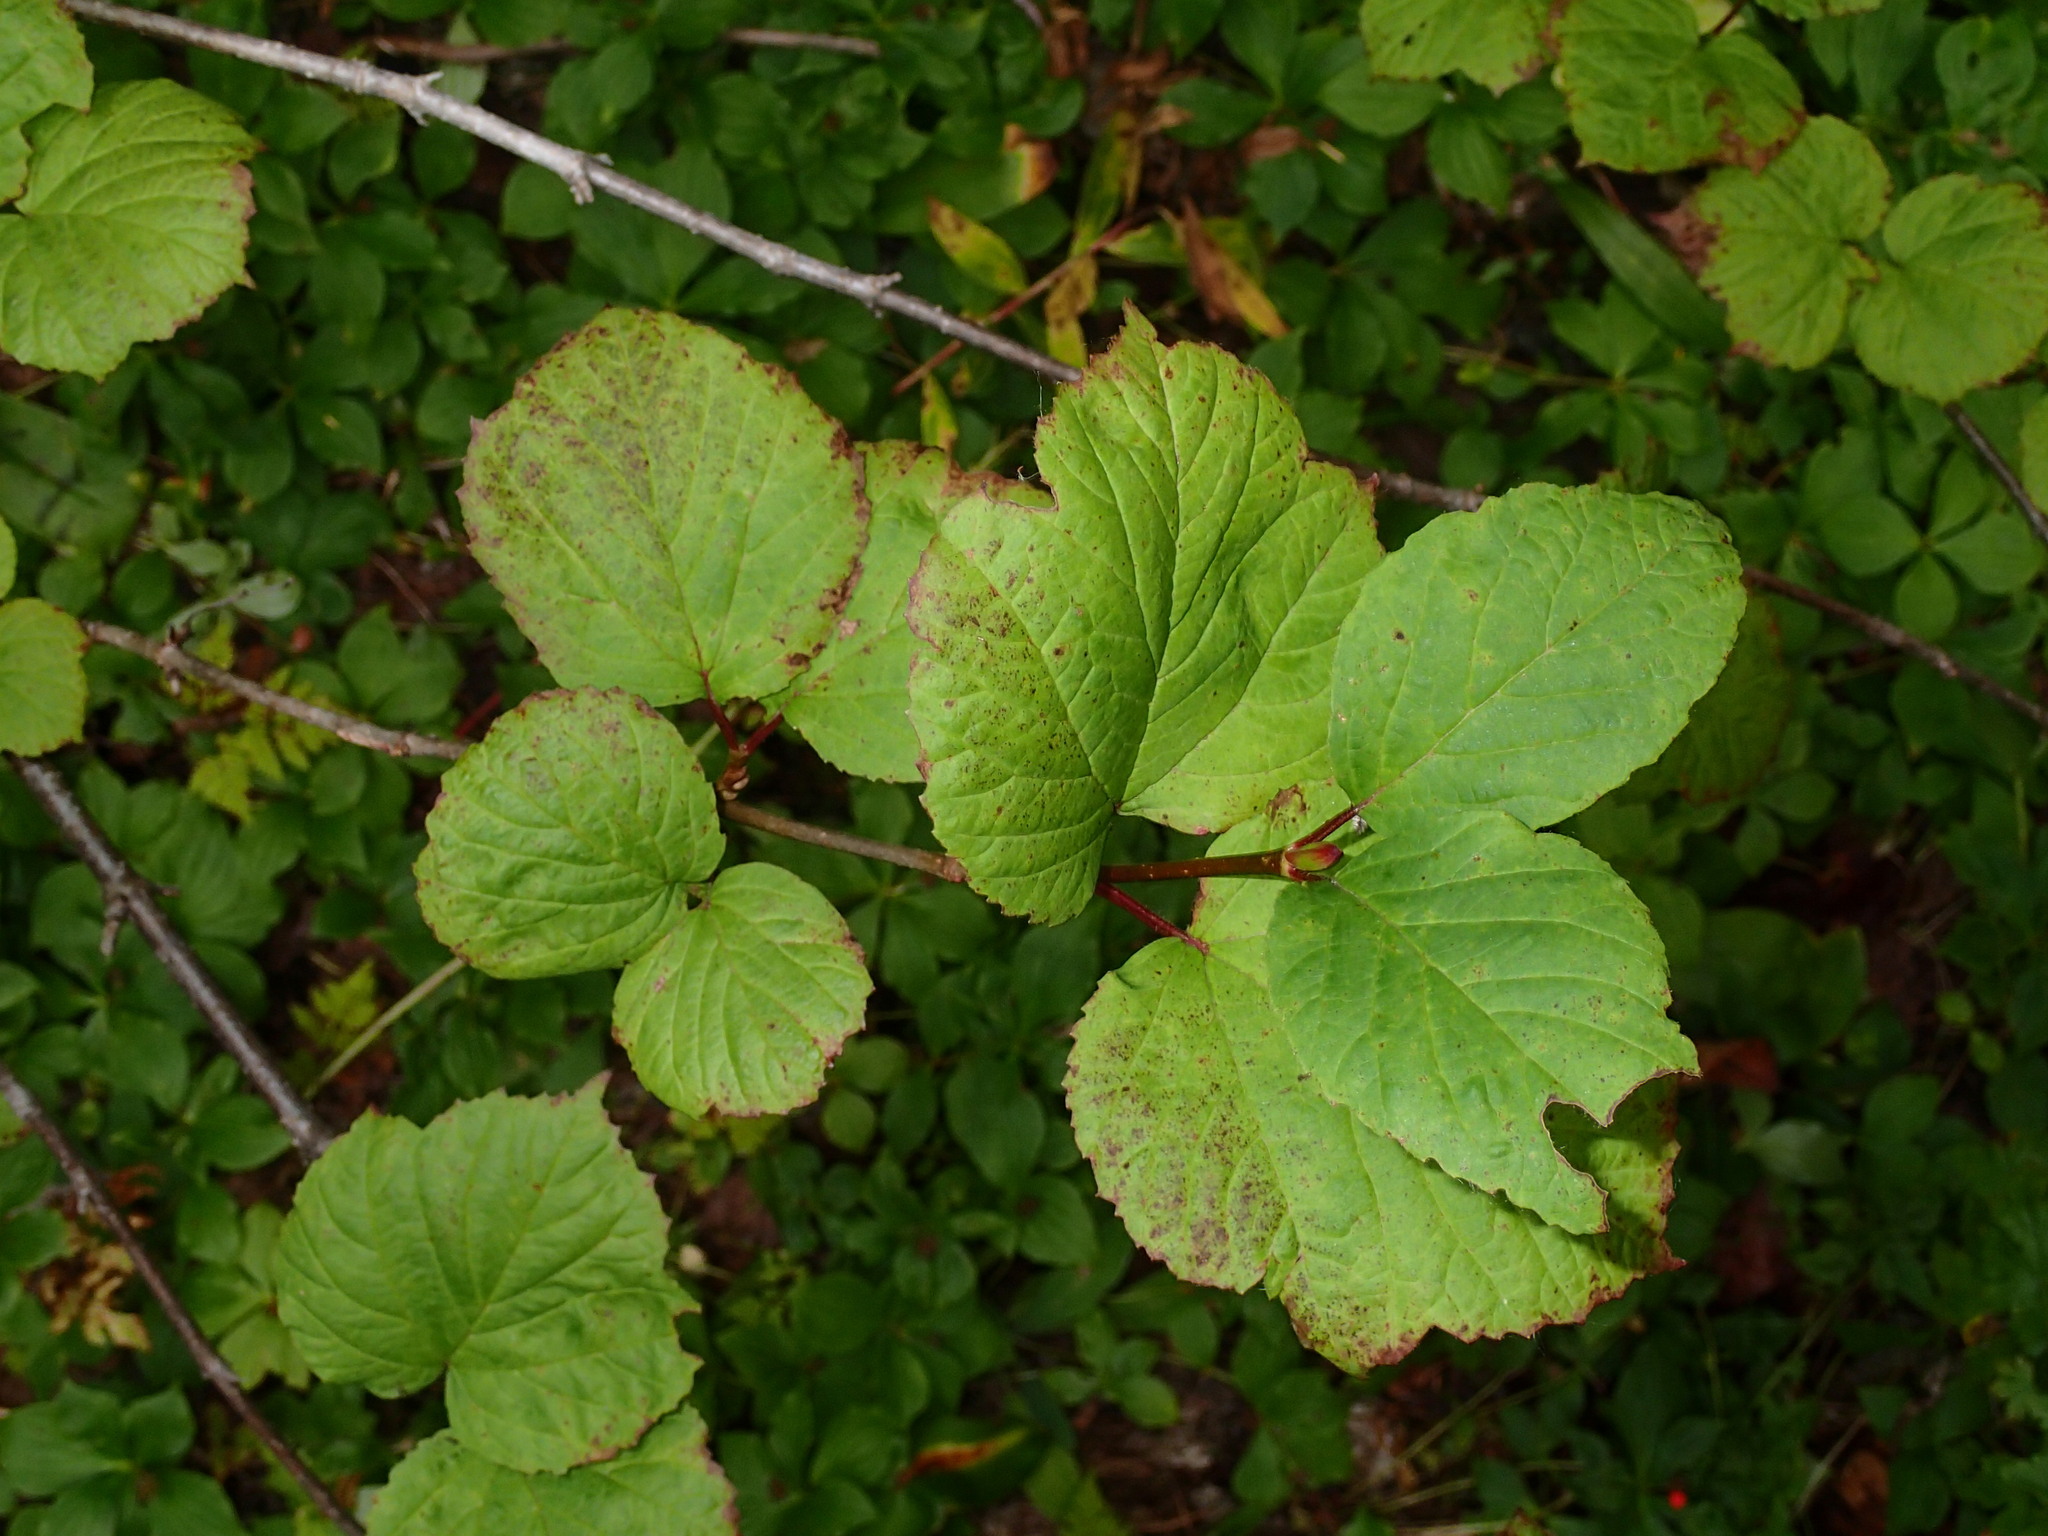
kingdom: Plantae
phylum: Tracheophyta
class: Magnoliopsida
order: Dipsacales
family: Viburnaceae
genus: Viburnum
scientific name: Viburnum edule
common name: Mooseberry
